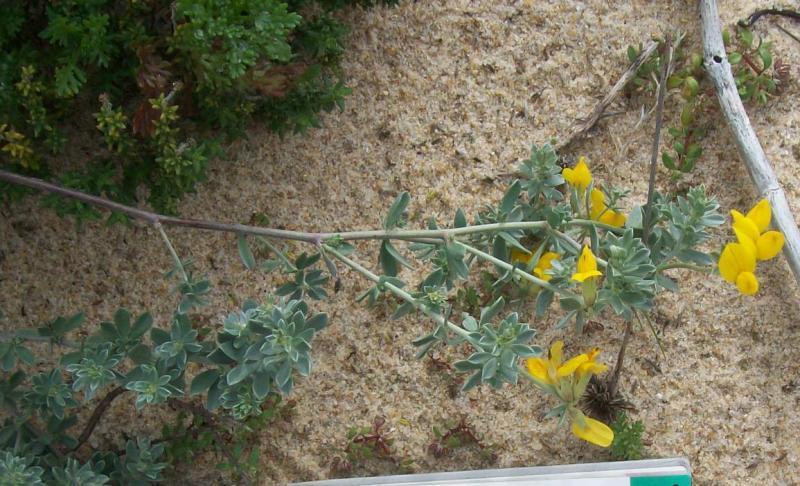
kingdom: Plantae
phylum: Tracheophyta
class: Magnoliopsida
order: Fabales
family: Fabaceae
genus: Lotus
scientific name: Lotus creticus
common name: Cretan bird's-foot trefoil
